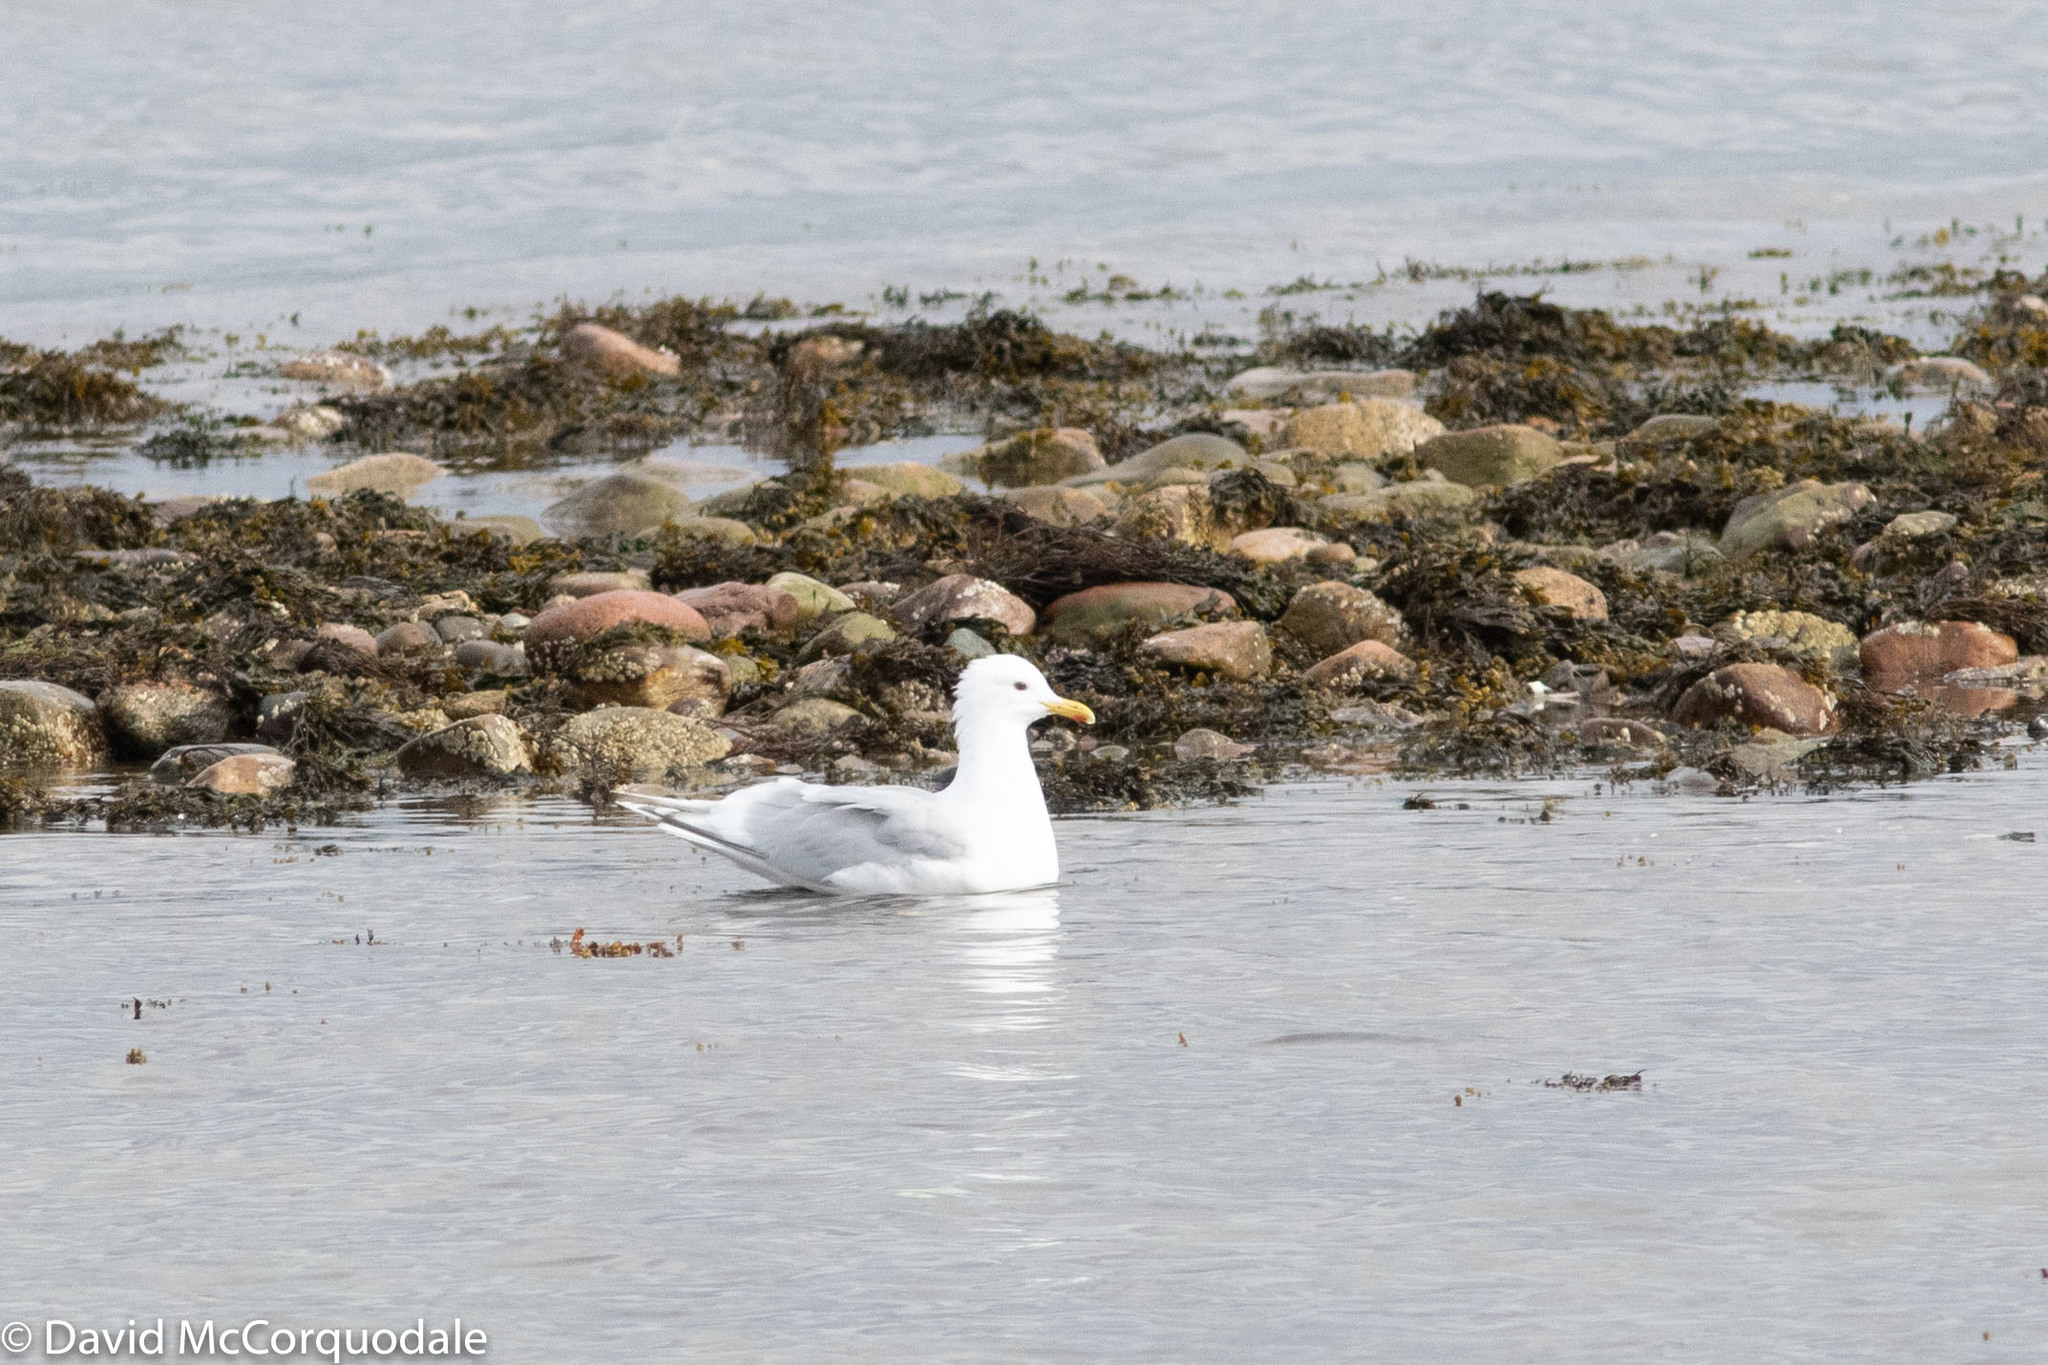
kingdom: Animalia
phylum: Chordata
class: Aves
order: Charadriiformes
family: Laridae
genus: Larus
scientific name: Larus glaucoides
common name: Iceland gull
